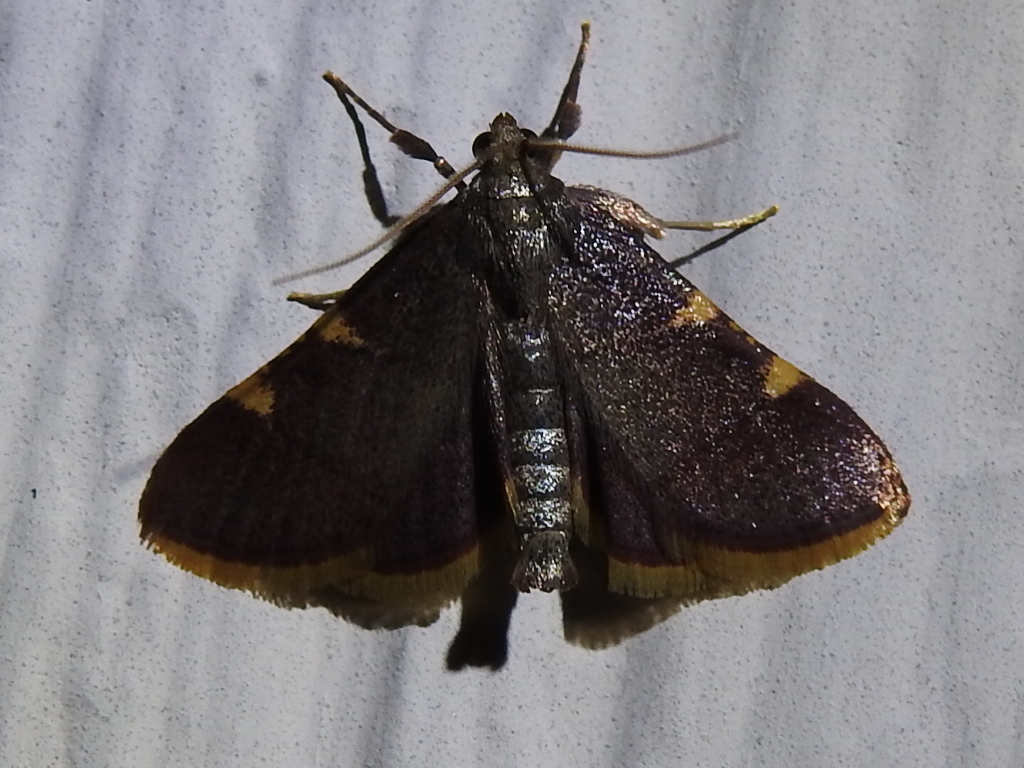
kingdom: Animalia
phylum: Arthropoda
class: Insecta
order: Lepidoptera
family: Pyralidae
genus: Hypsopygia
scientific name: Hypsopygia olinalis
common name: Yellow-fringed dolichomia moth
